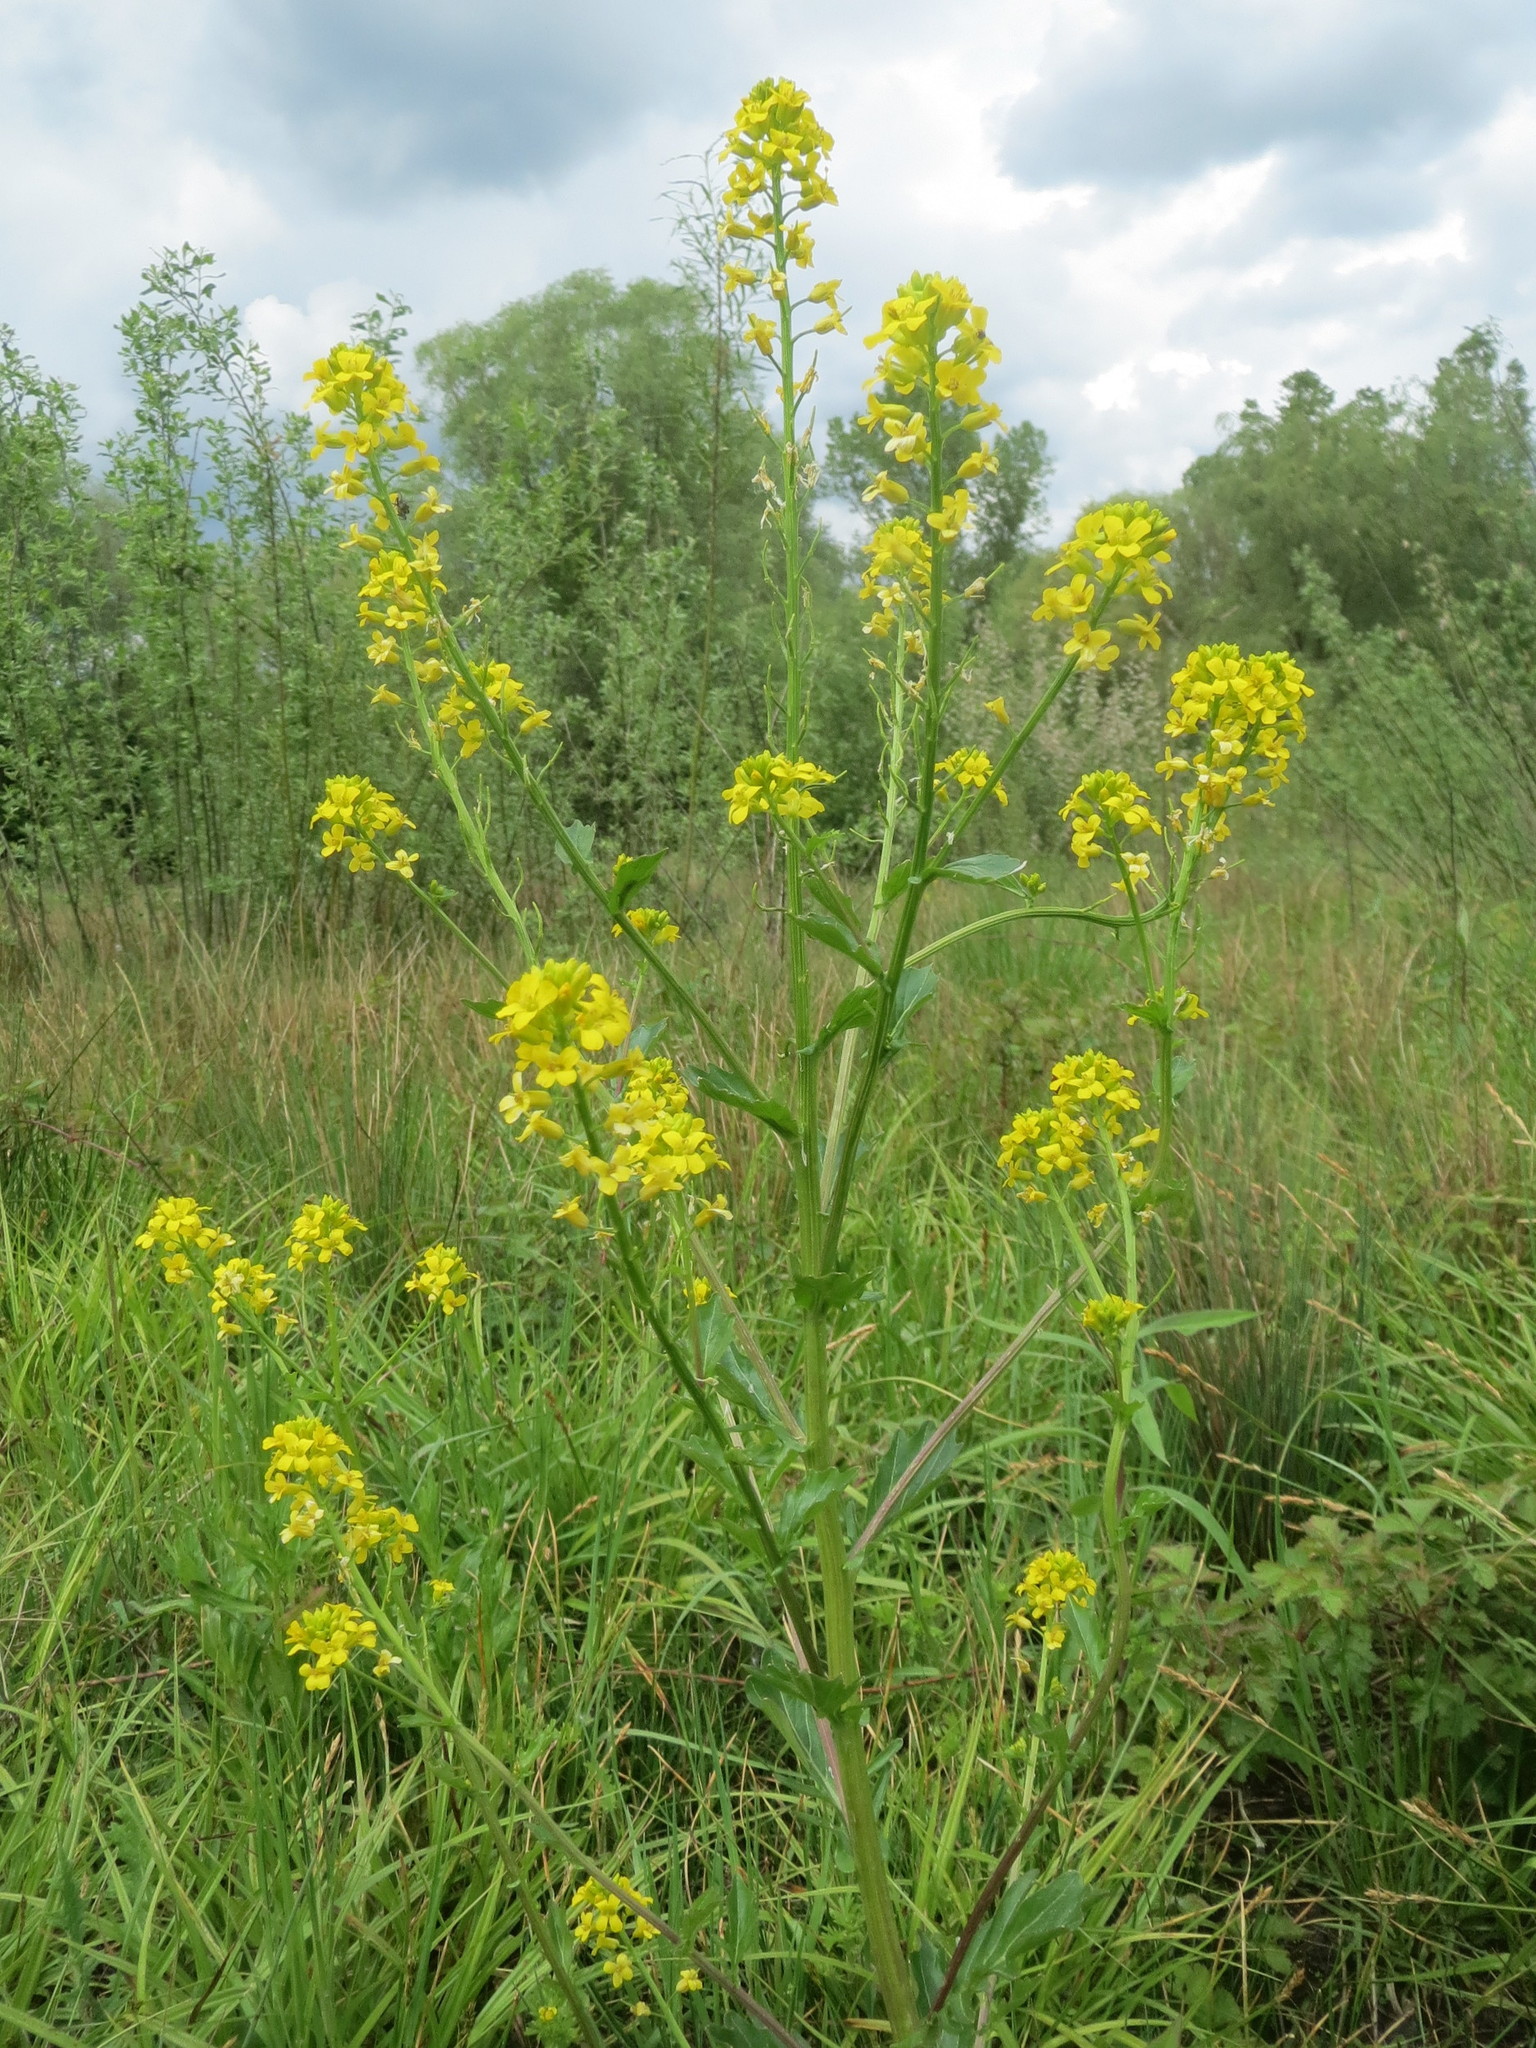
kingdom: Plantae
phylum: Tracheophyta
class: Magnoliopsida
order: Brassicales
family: Brassicaceae
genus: Barbarea
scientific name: Barbarea vulgaris
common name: Cressy-greens
